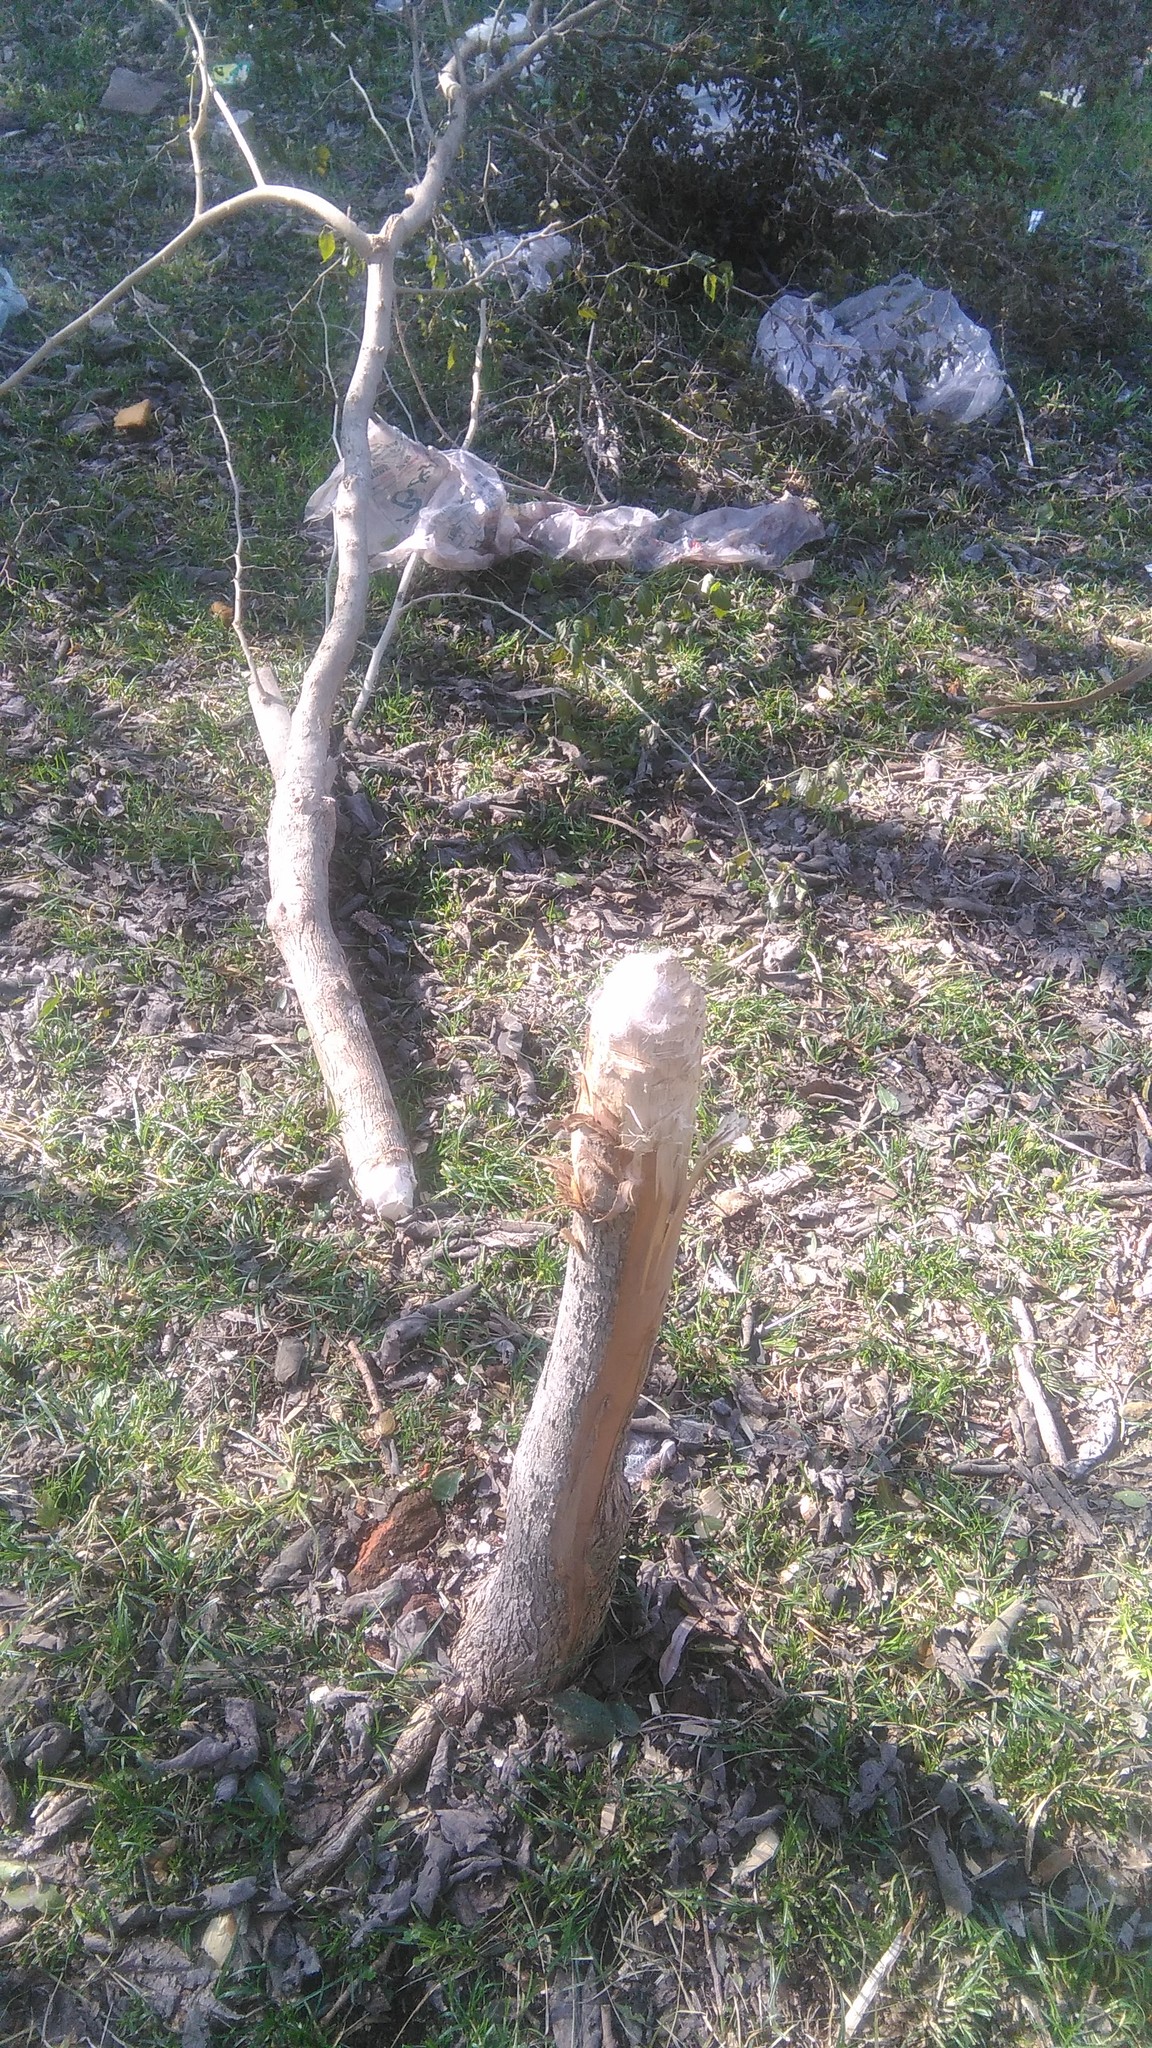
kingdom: Plantae
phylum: Tracheophyta
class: Magnoliopsida
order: Rosales
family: Cannabaceae
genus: Celtis
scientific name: Celtis tala
